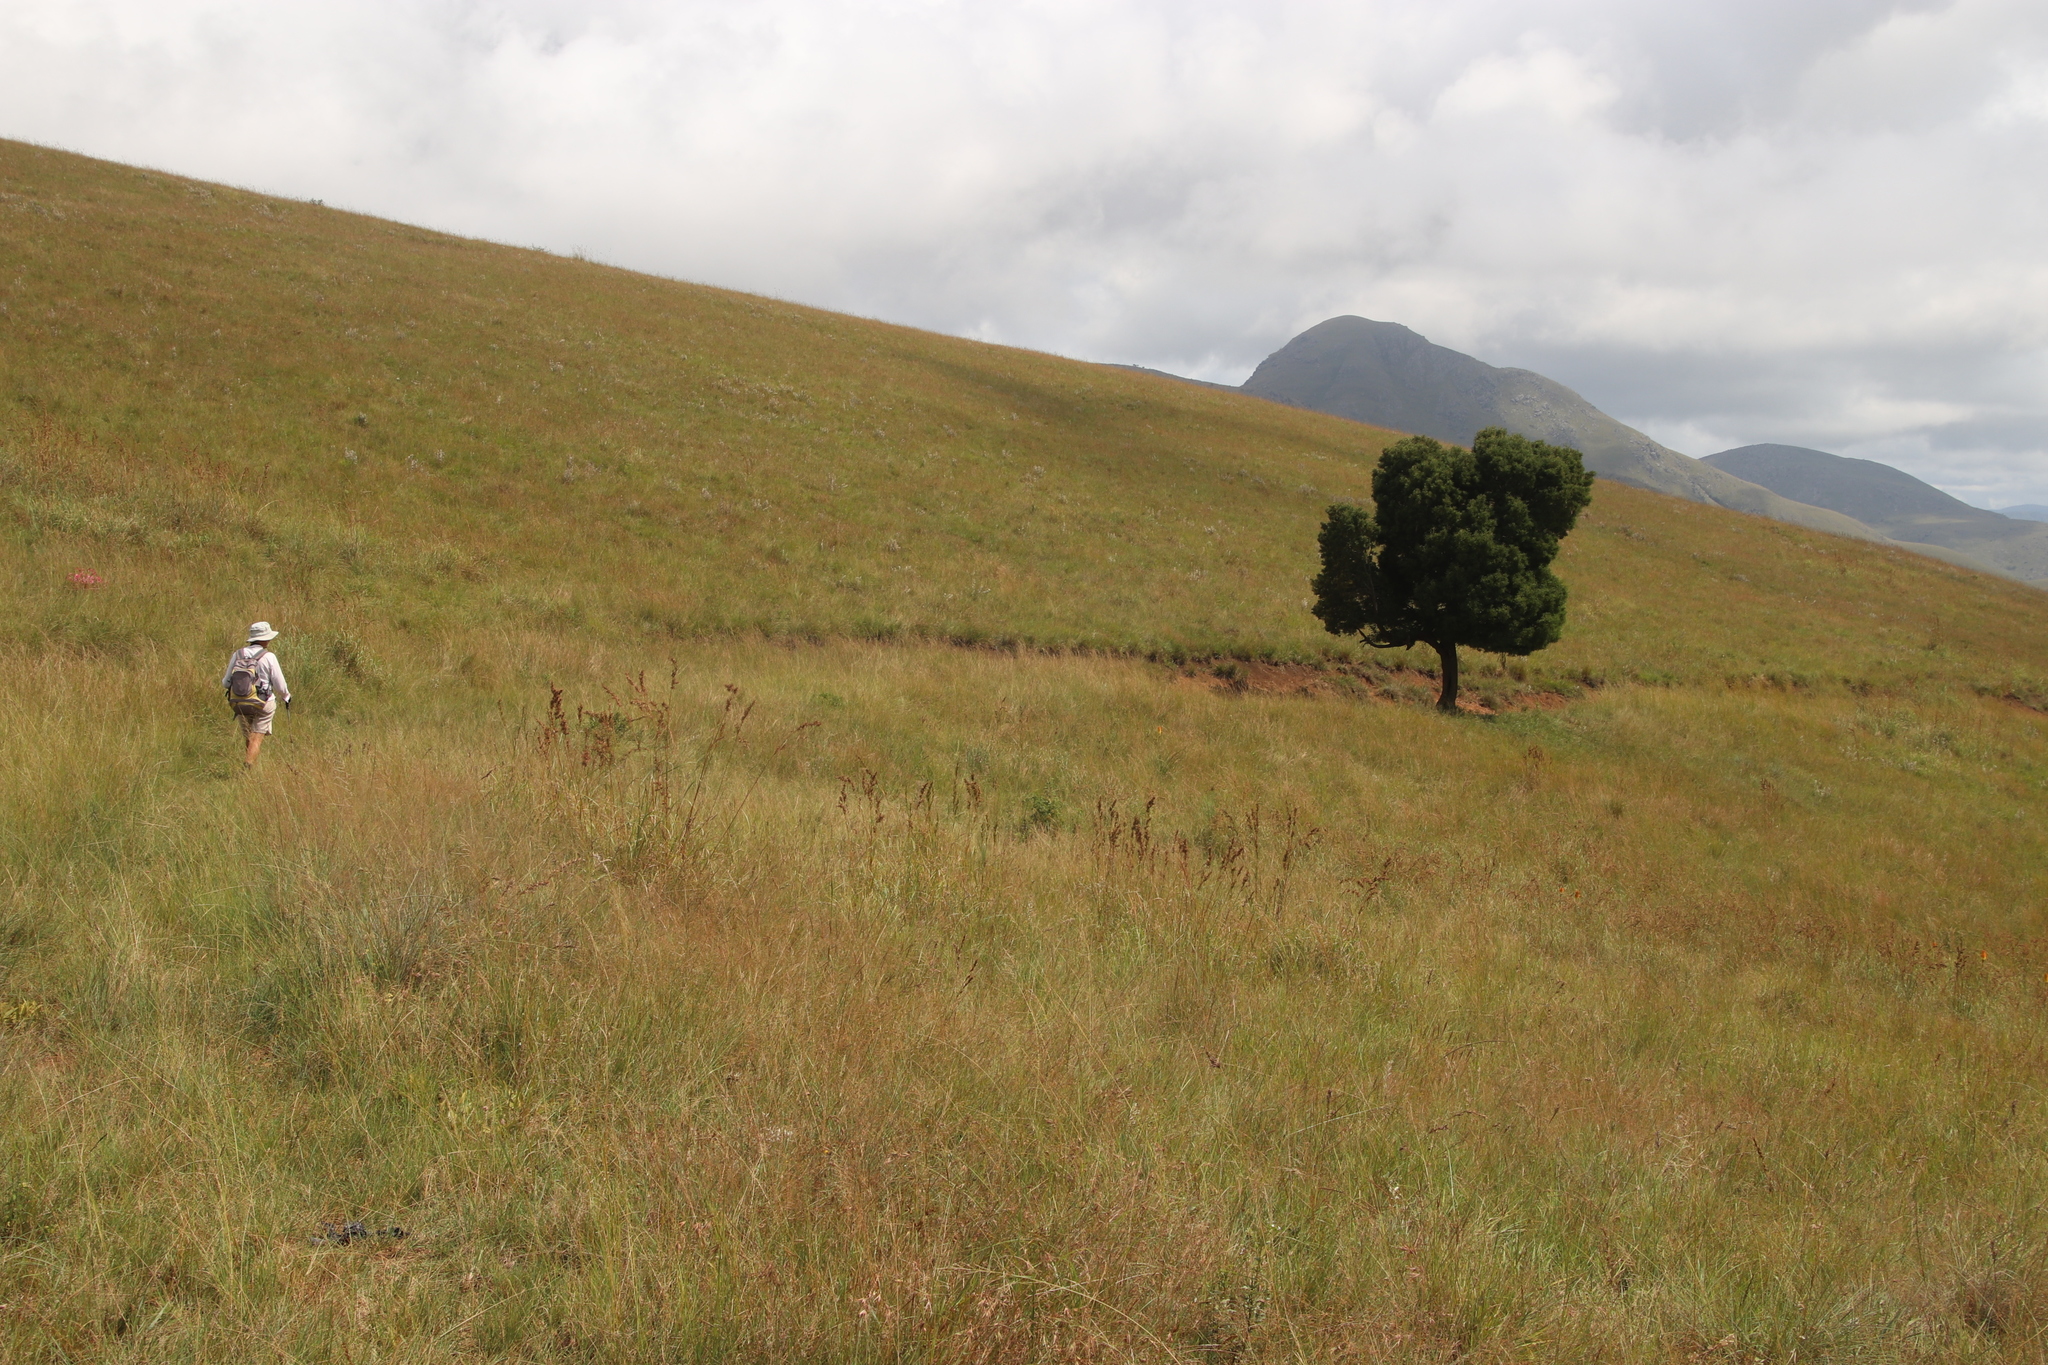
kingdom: Plantae
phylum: Tracheophyta
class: Magnoliopsida
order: Fabales
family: Fabaceae
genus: Acacia
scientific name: Acacia melanoxylon
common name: Blackwood
